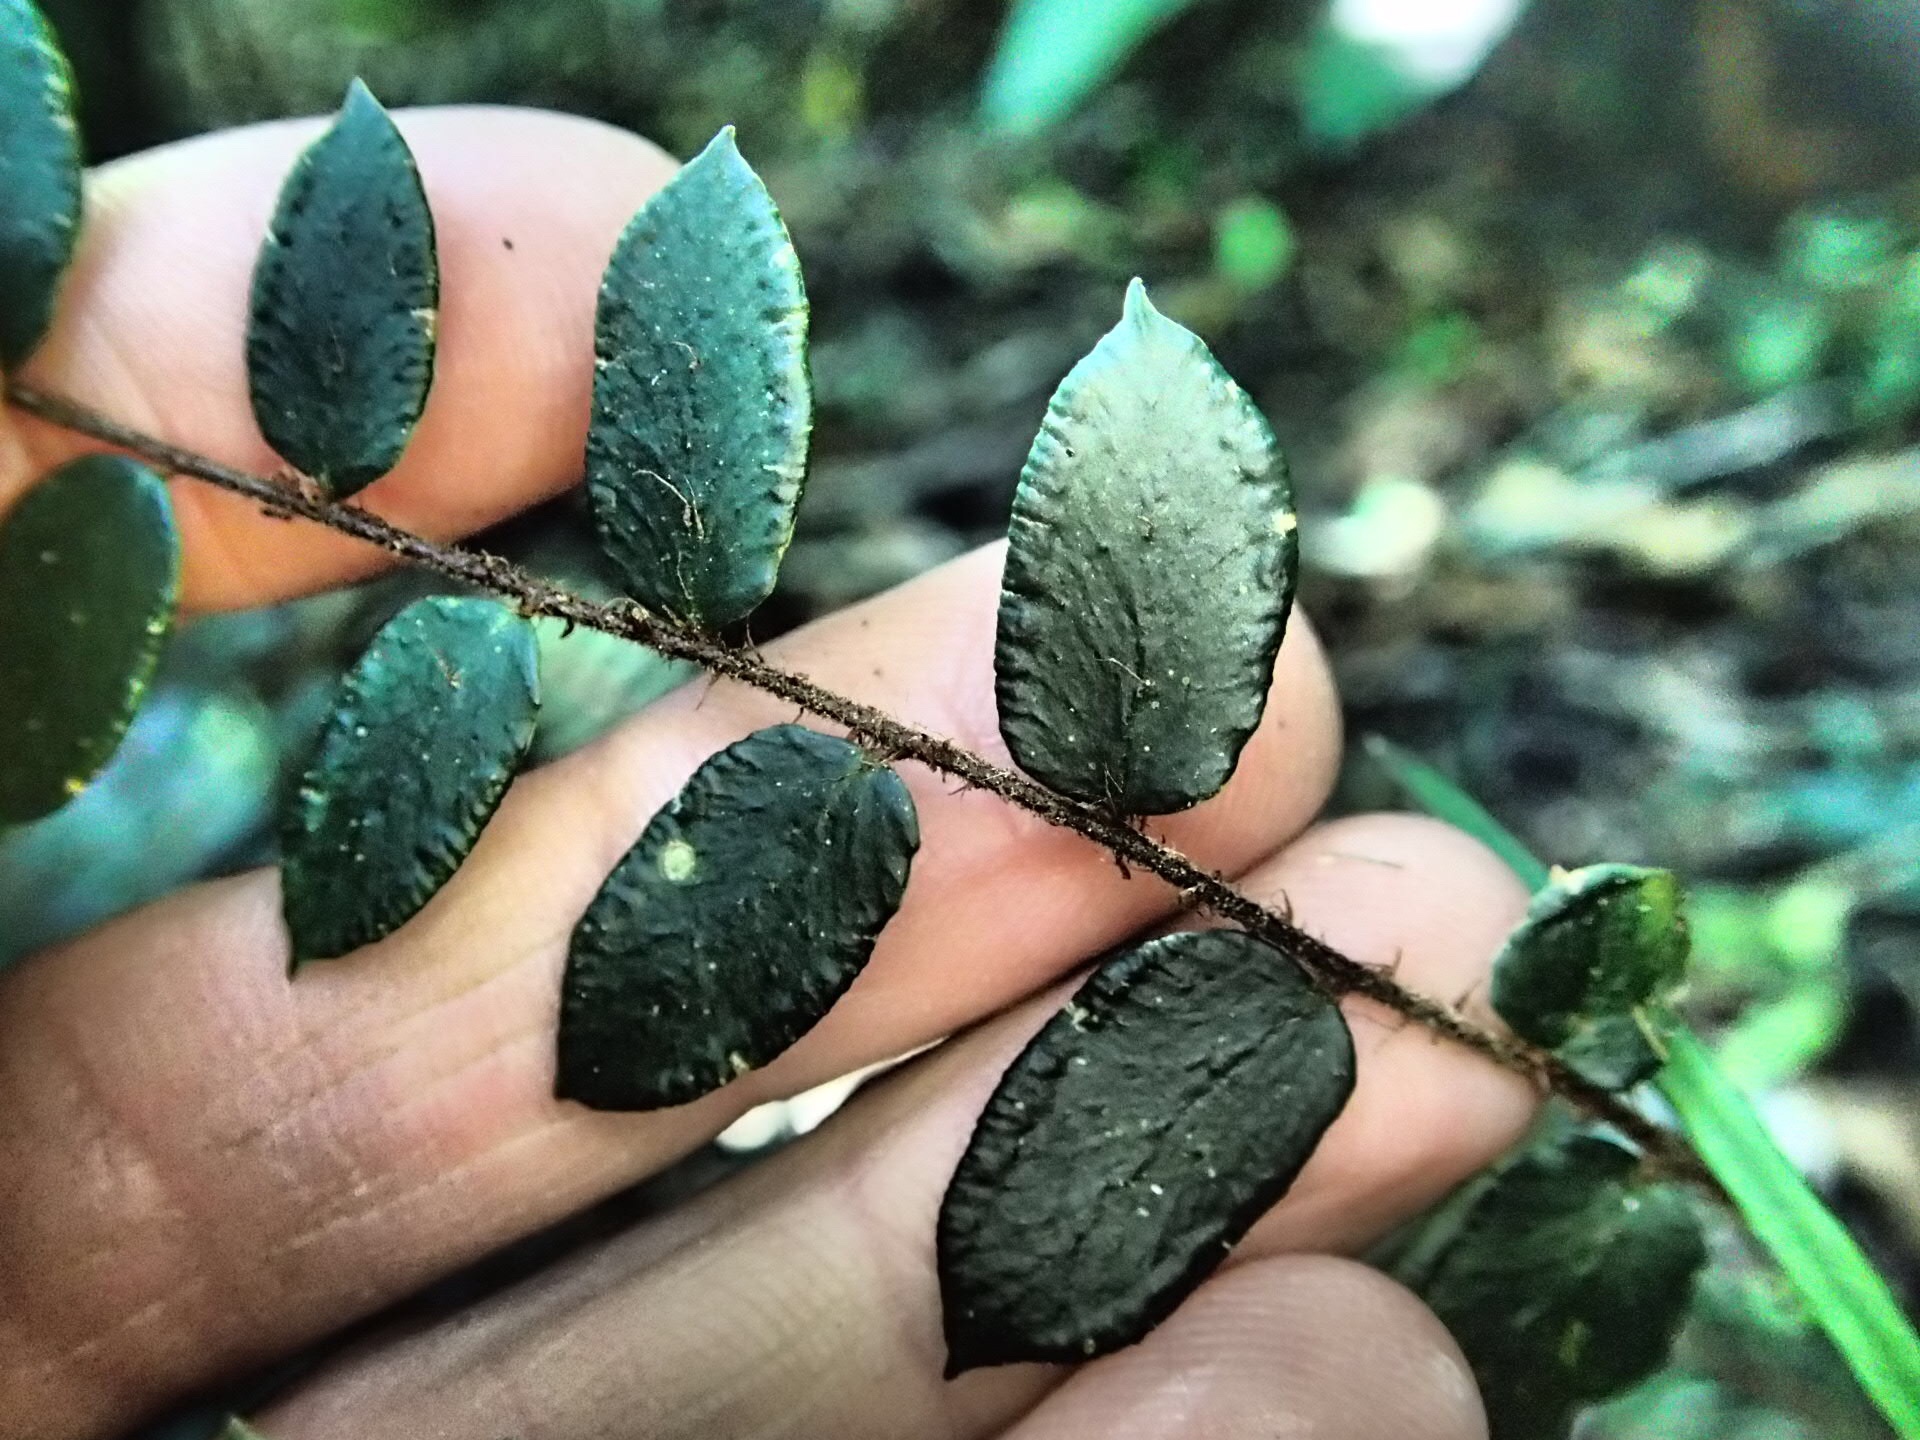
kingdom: Plantae
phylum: Tracheophyta
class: Polypodiopsida
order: Polypodiales
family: Pteridaceae
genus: Pellaea
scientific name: Pellaea rotundifolia
